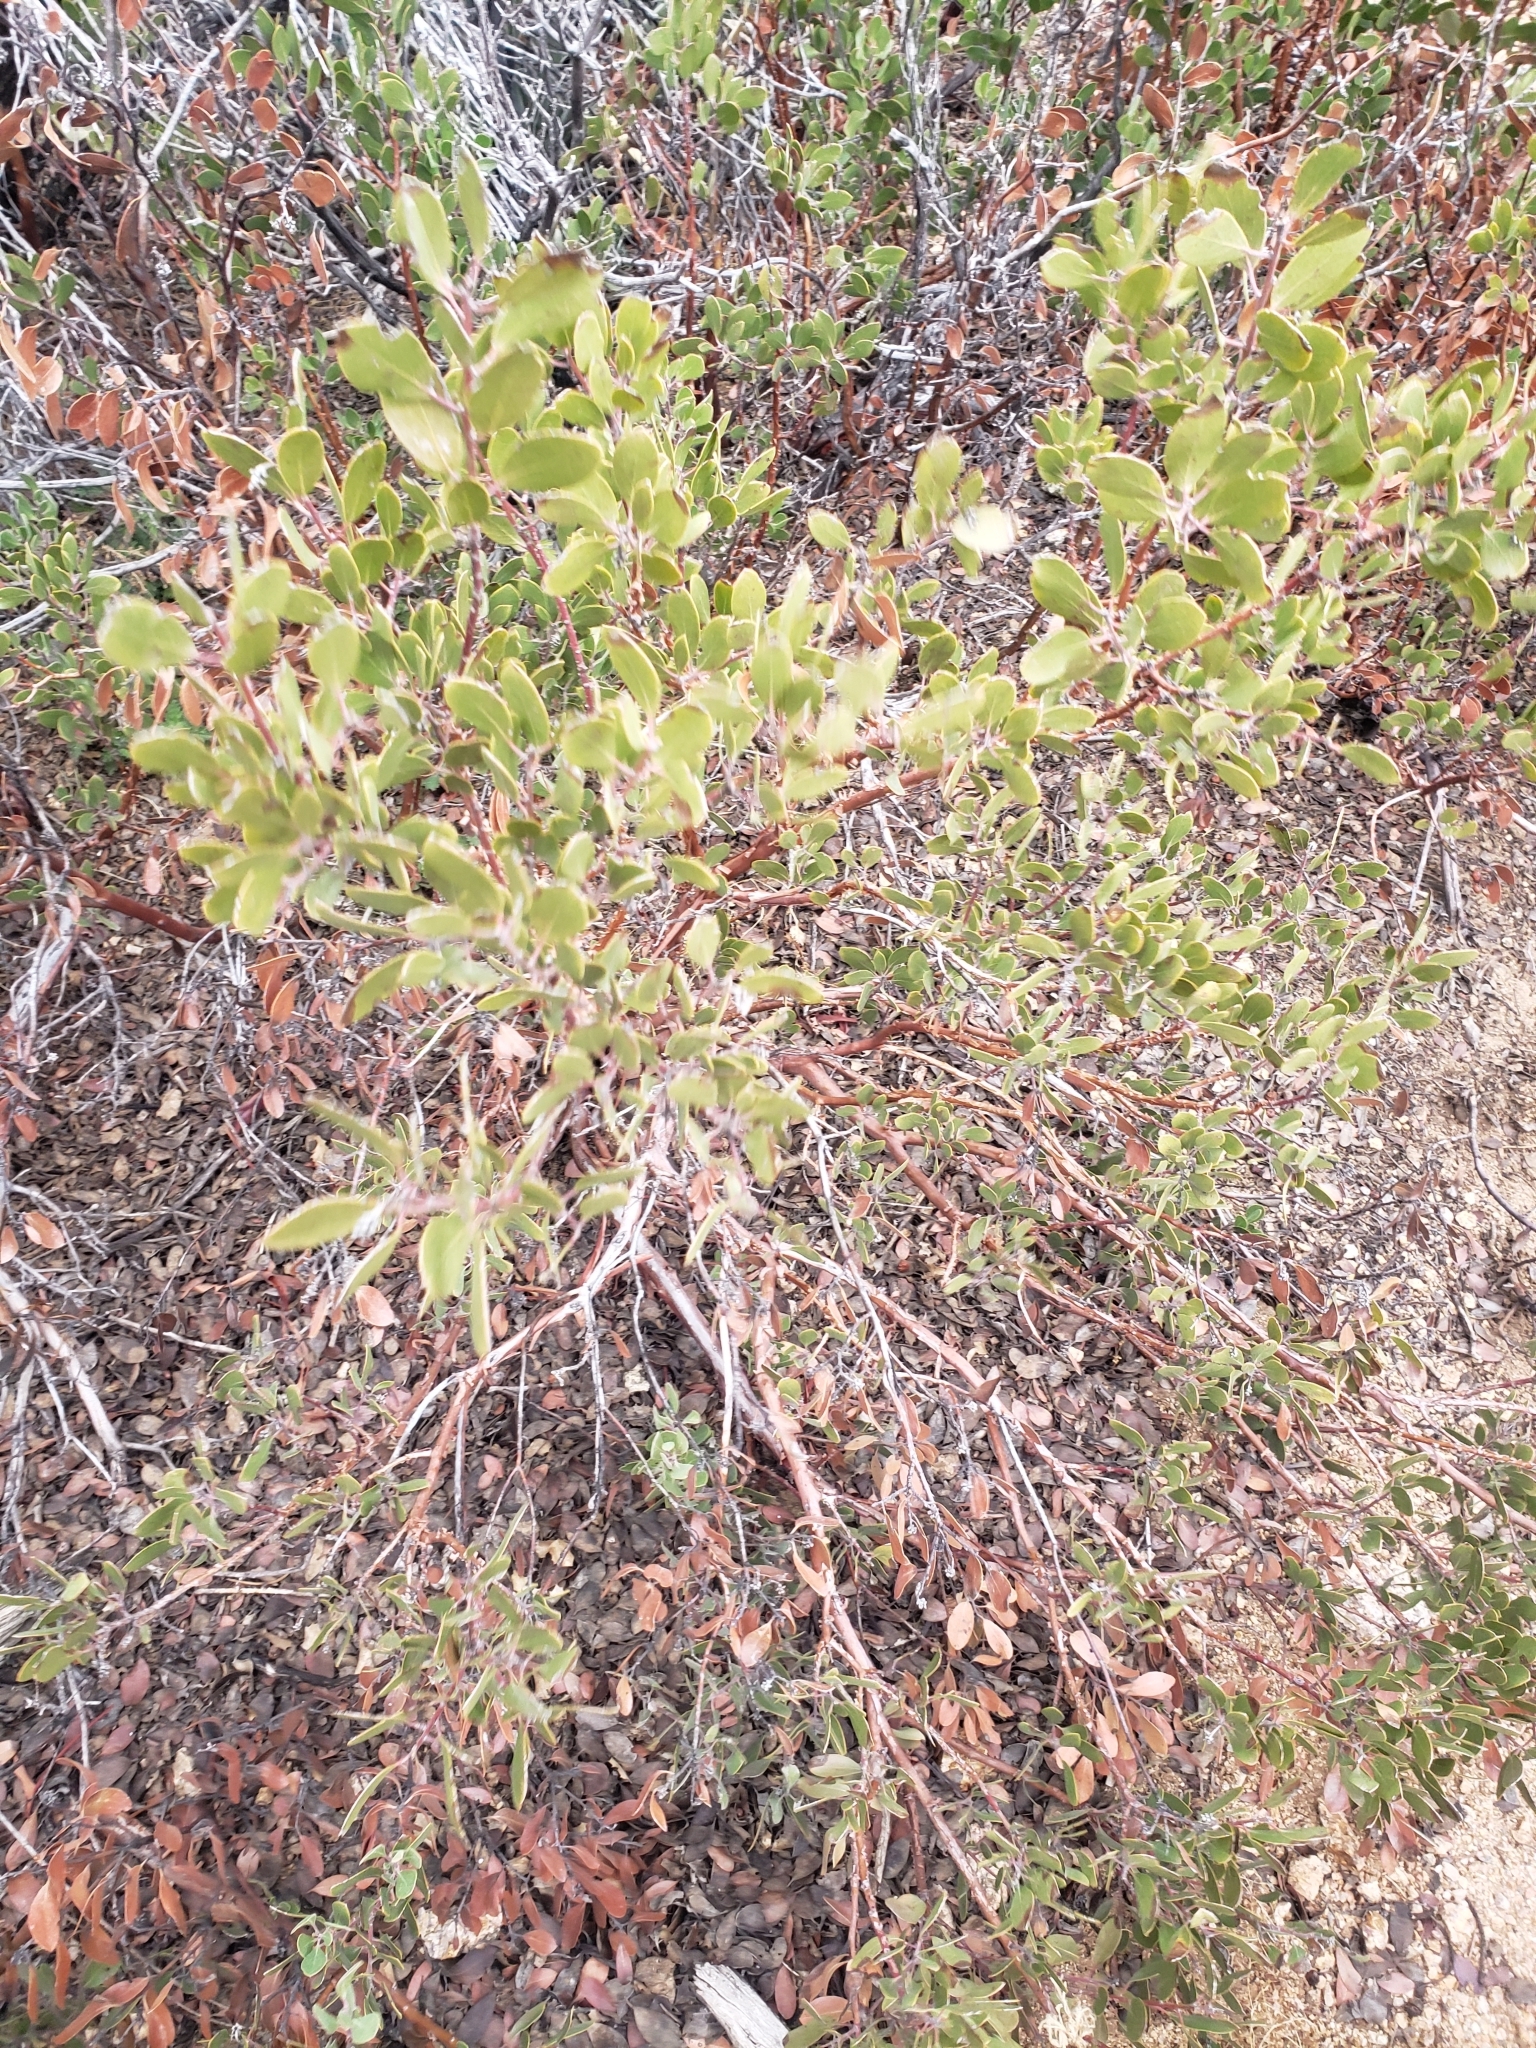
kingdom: Plantae
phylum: Tracheophyta
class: Magnoliopsida
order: Ericales
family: Ericaceae
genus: Arctostaphylos
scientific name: Arctostaphylos pungens
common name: Mexican manzanita
